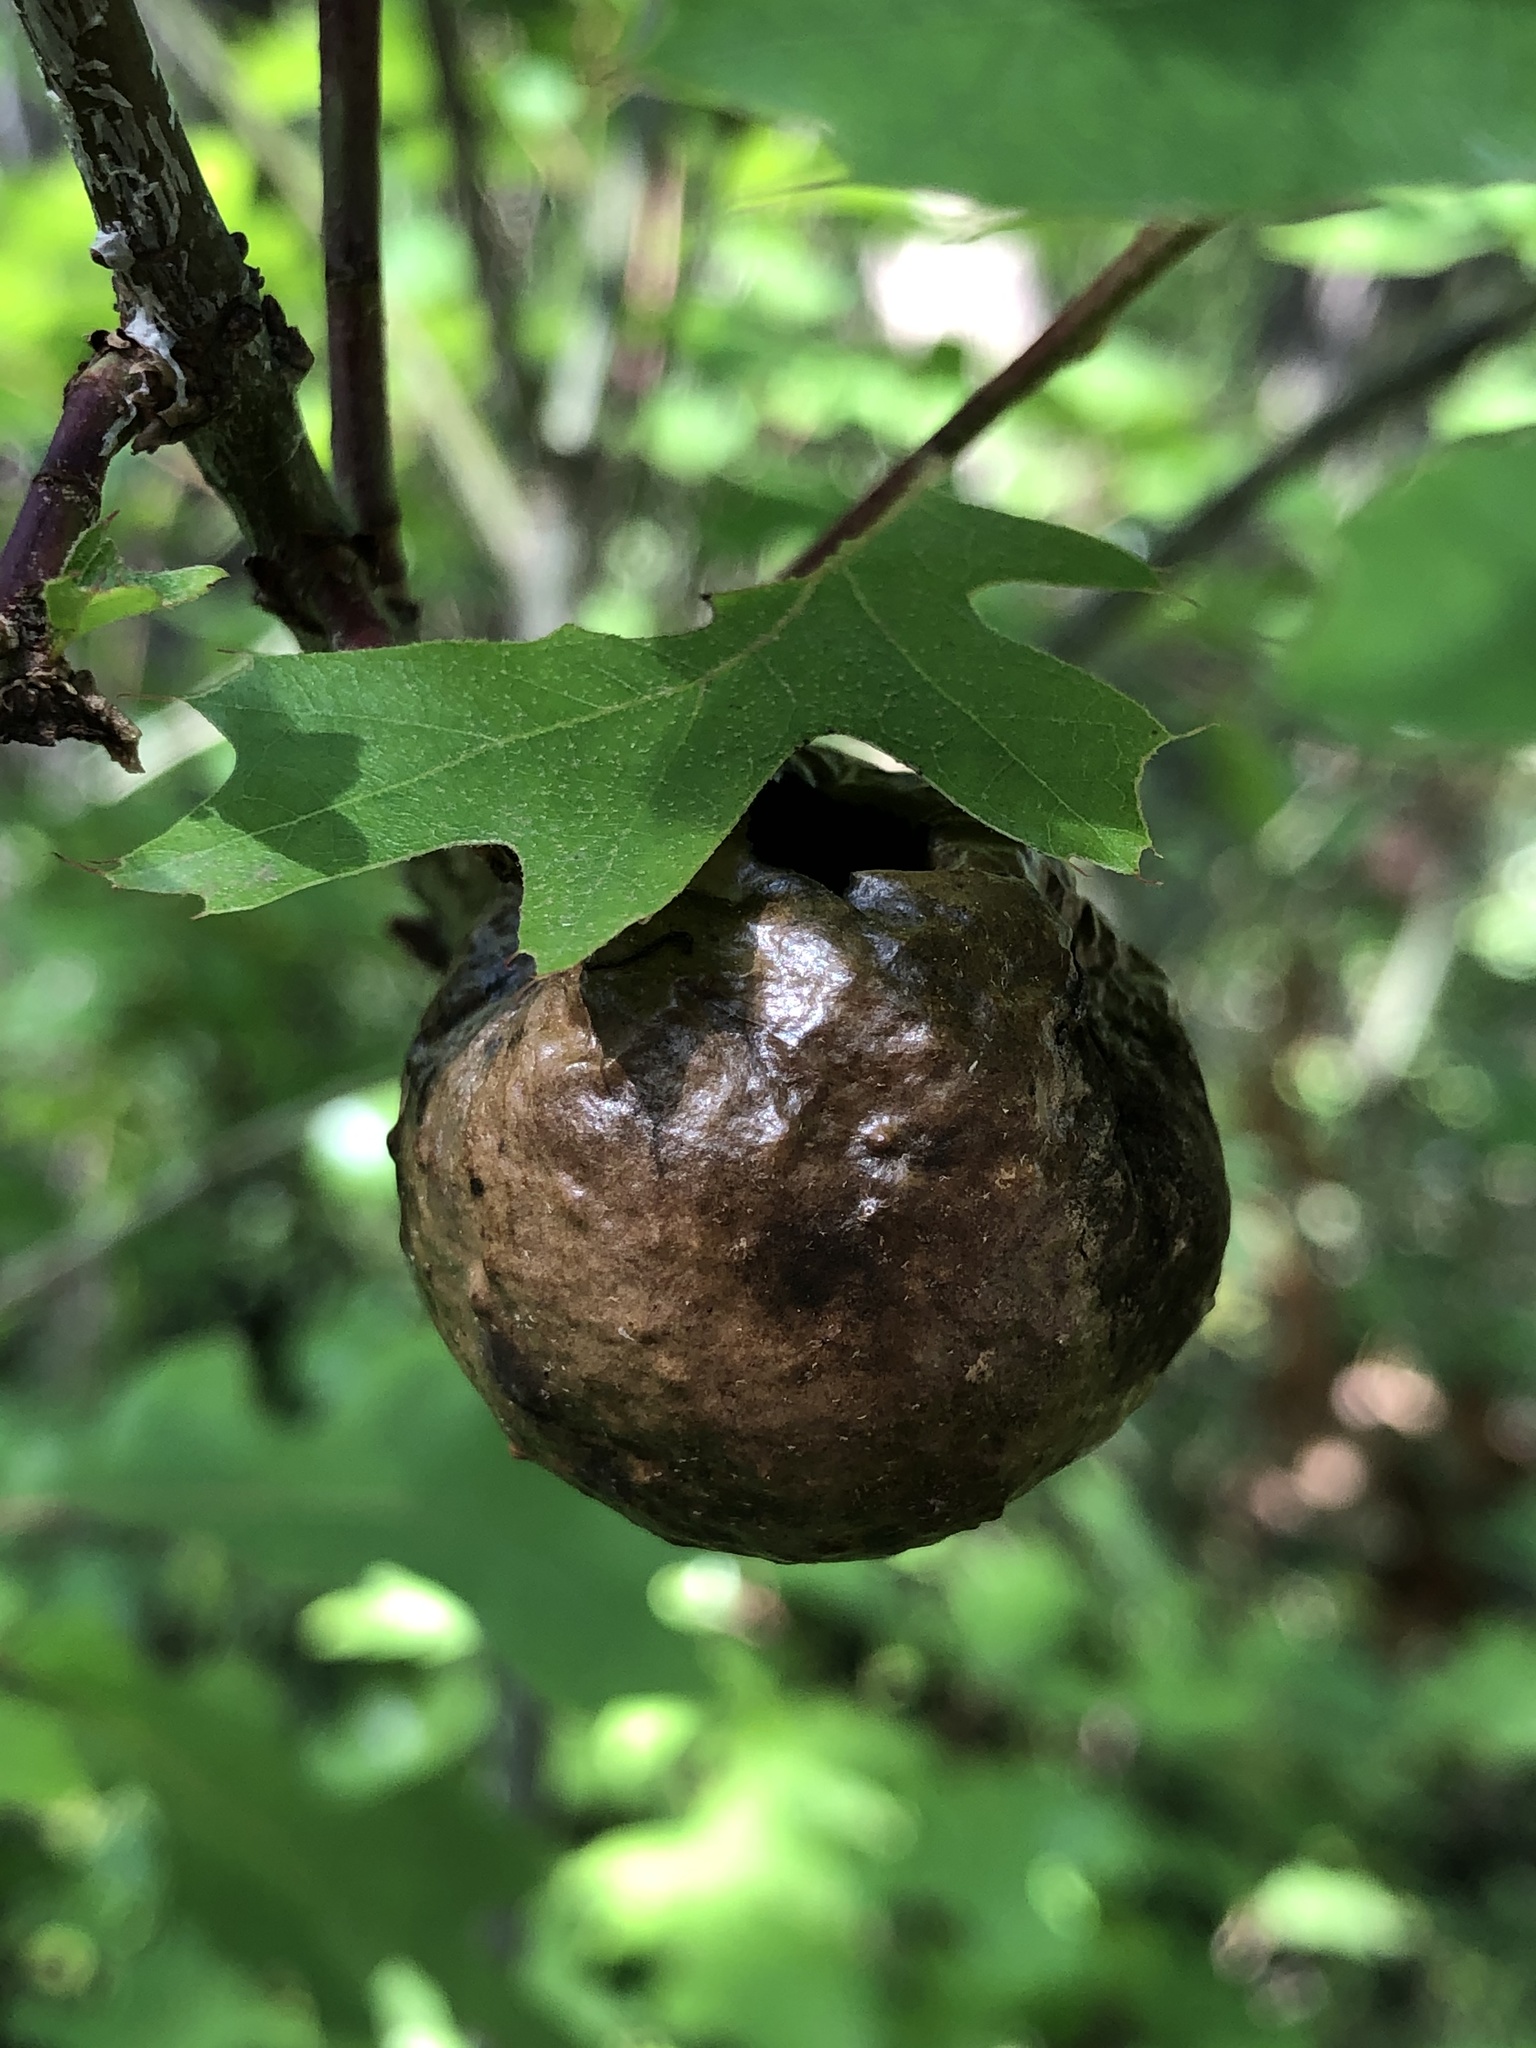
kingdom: Animalia
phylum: Arthropoda
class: Insecta
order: Hymenoptera
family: Cynipidae
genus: Amphibolips
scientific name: Amphibolips
